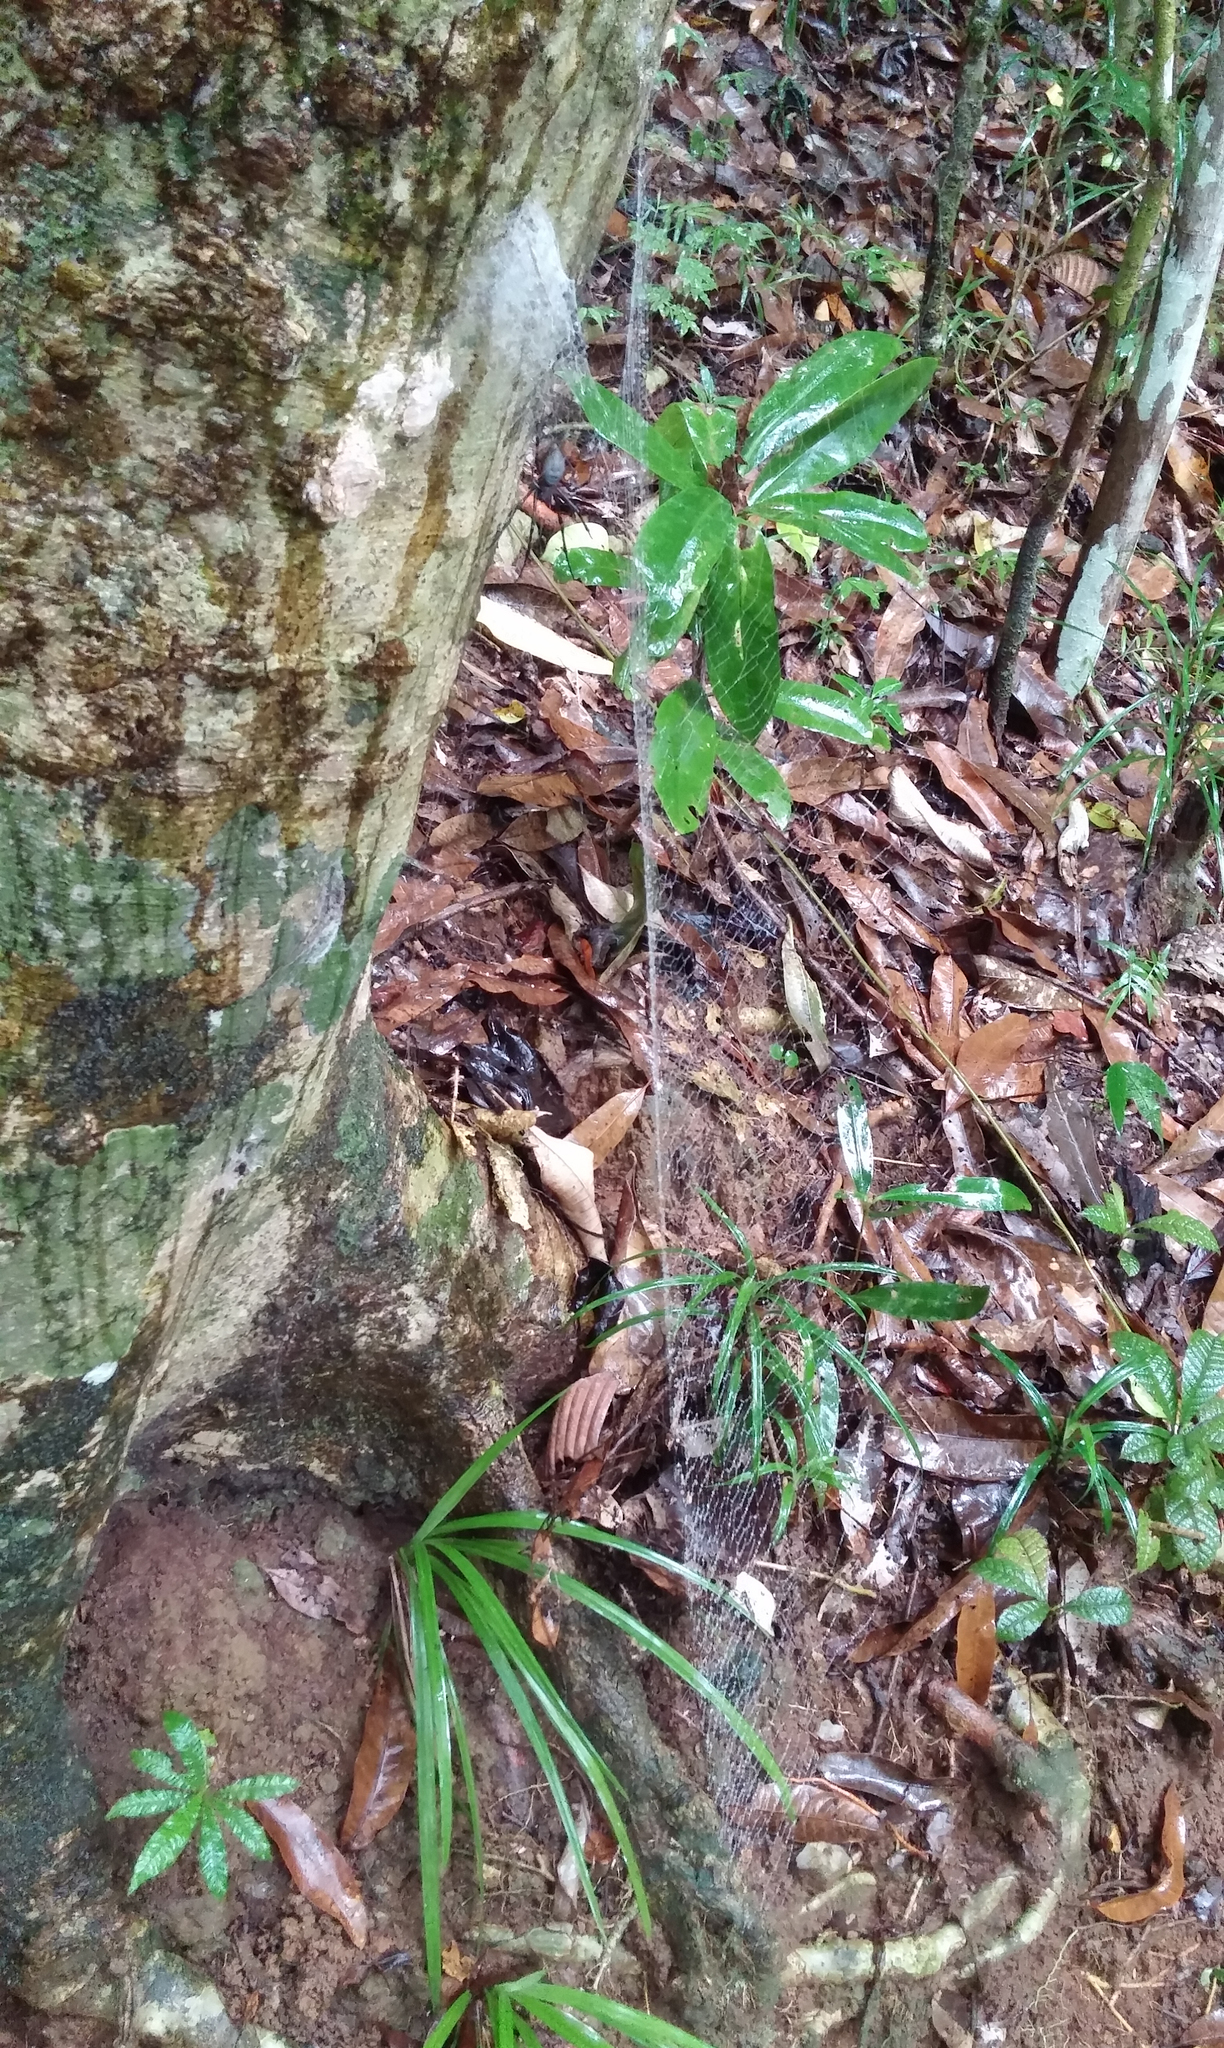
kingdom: Animalia
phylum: Arthropoda
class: Arachnida
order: Araneae
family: Araneidae
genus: Nephilingis
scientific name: Nephilingis livida
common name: Madagascar hermit spider
